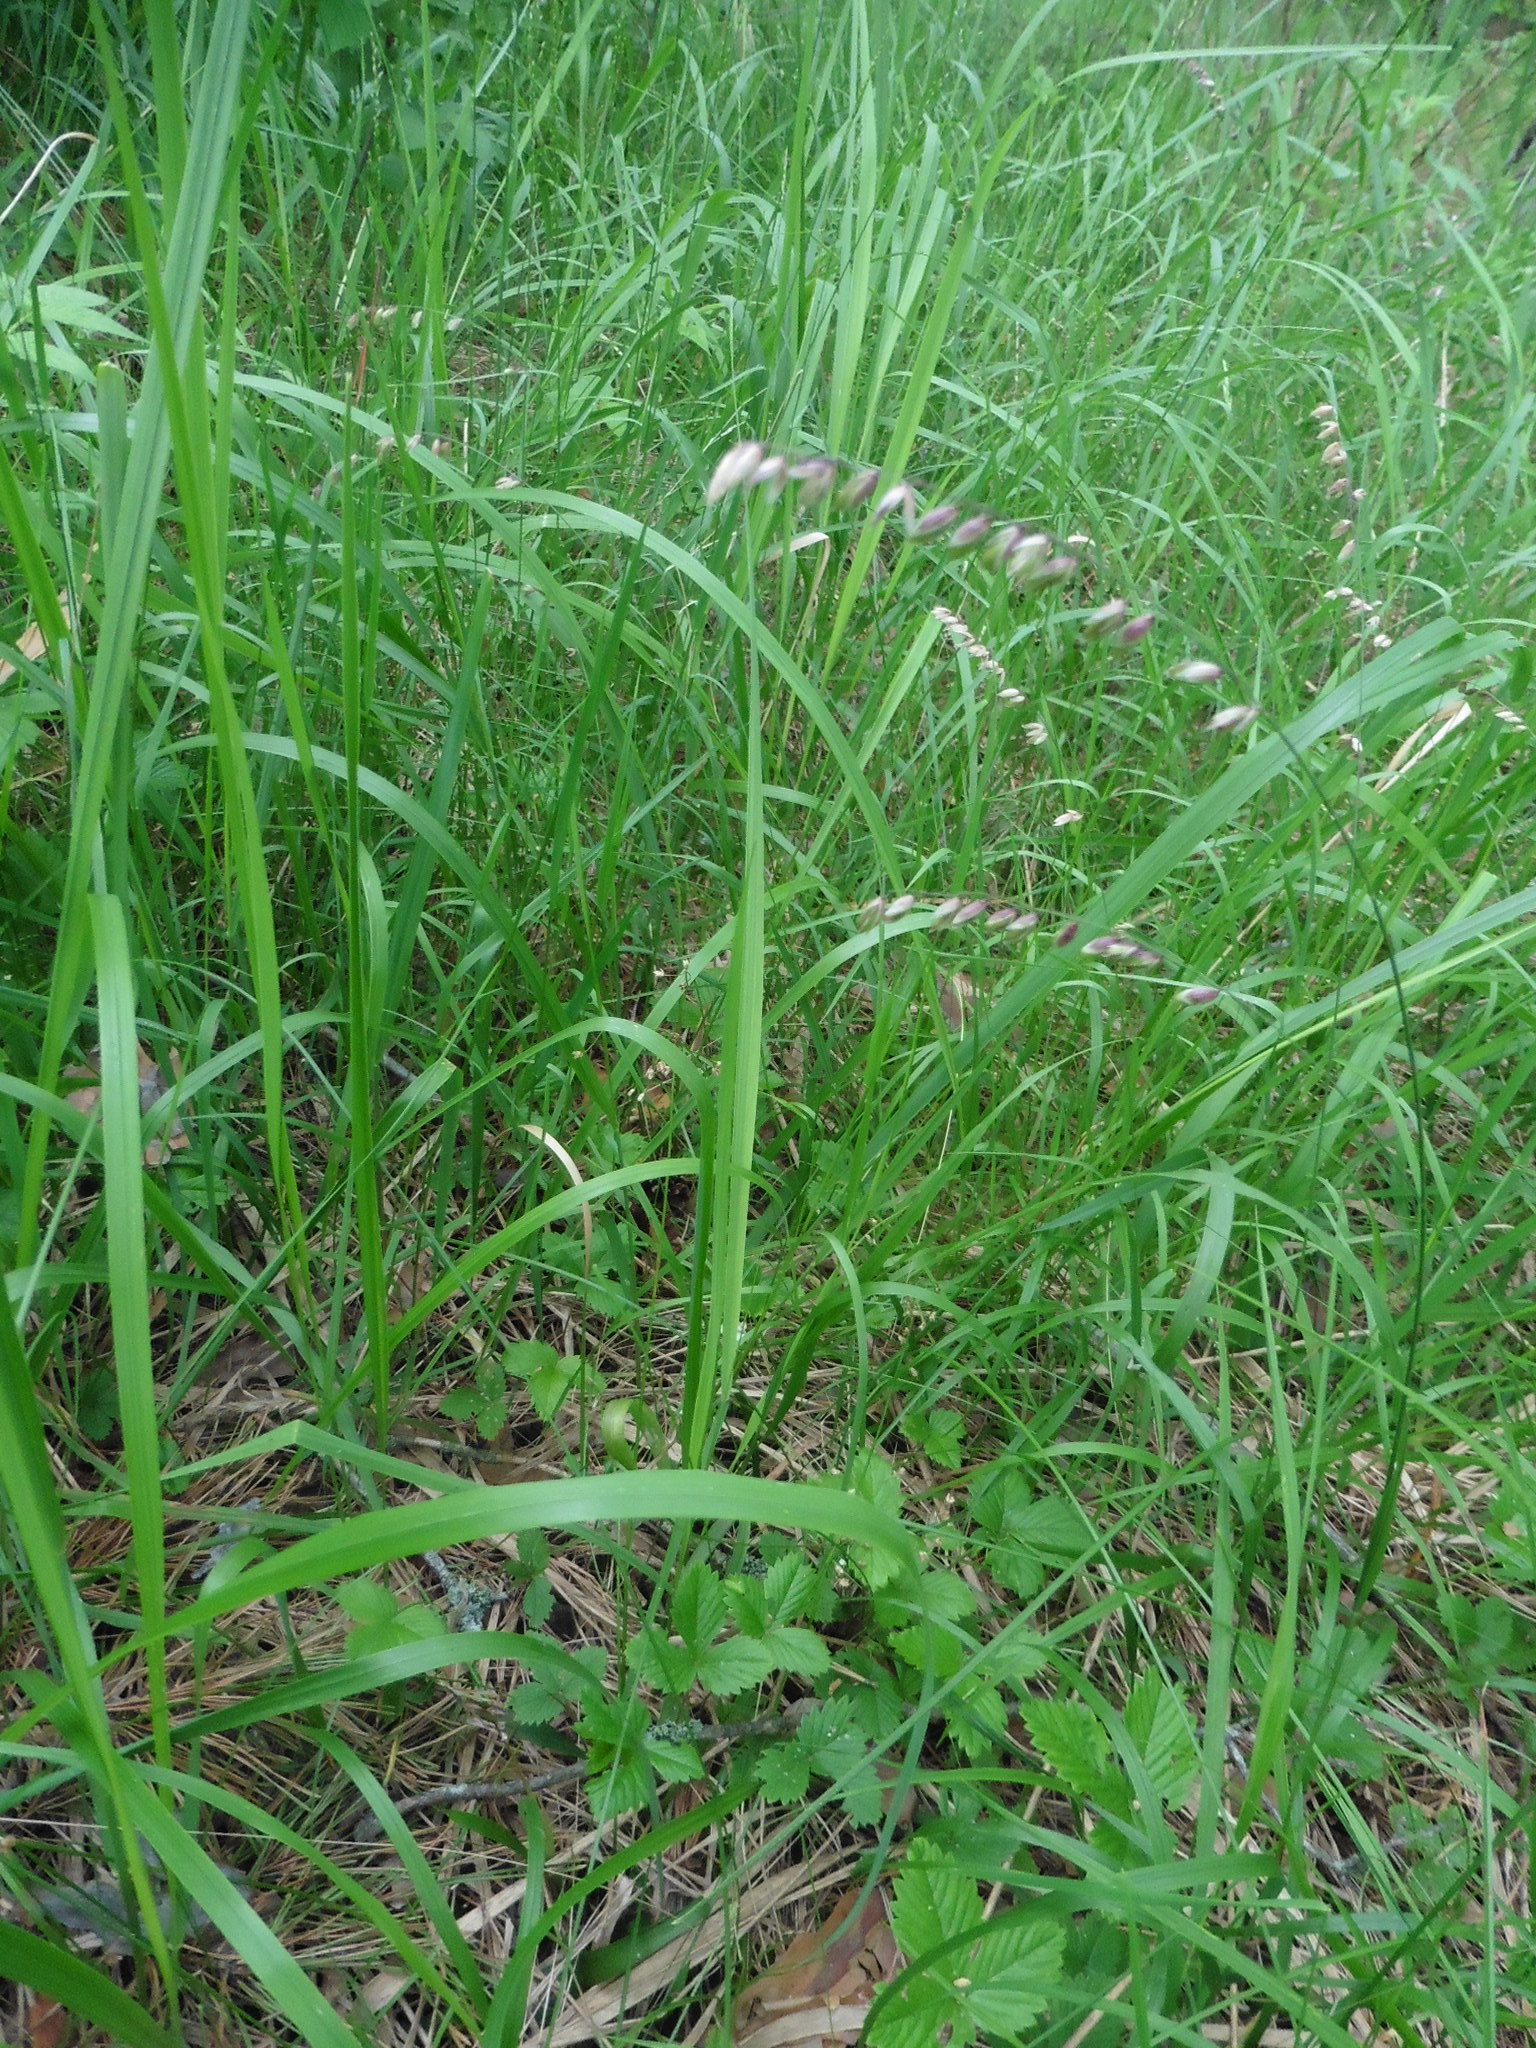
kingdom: Plantae
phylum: Tracheophyta
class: Liliopsida
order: Poales
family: Poaceae
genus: Melica
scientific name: Melica nutans
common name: Mountain melick
